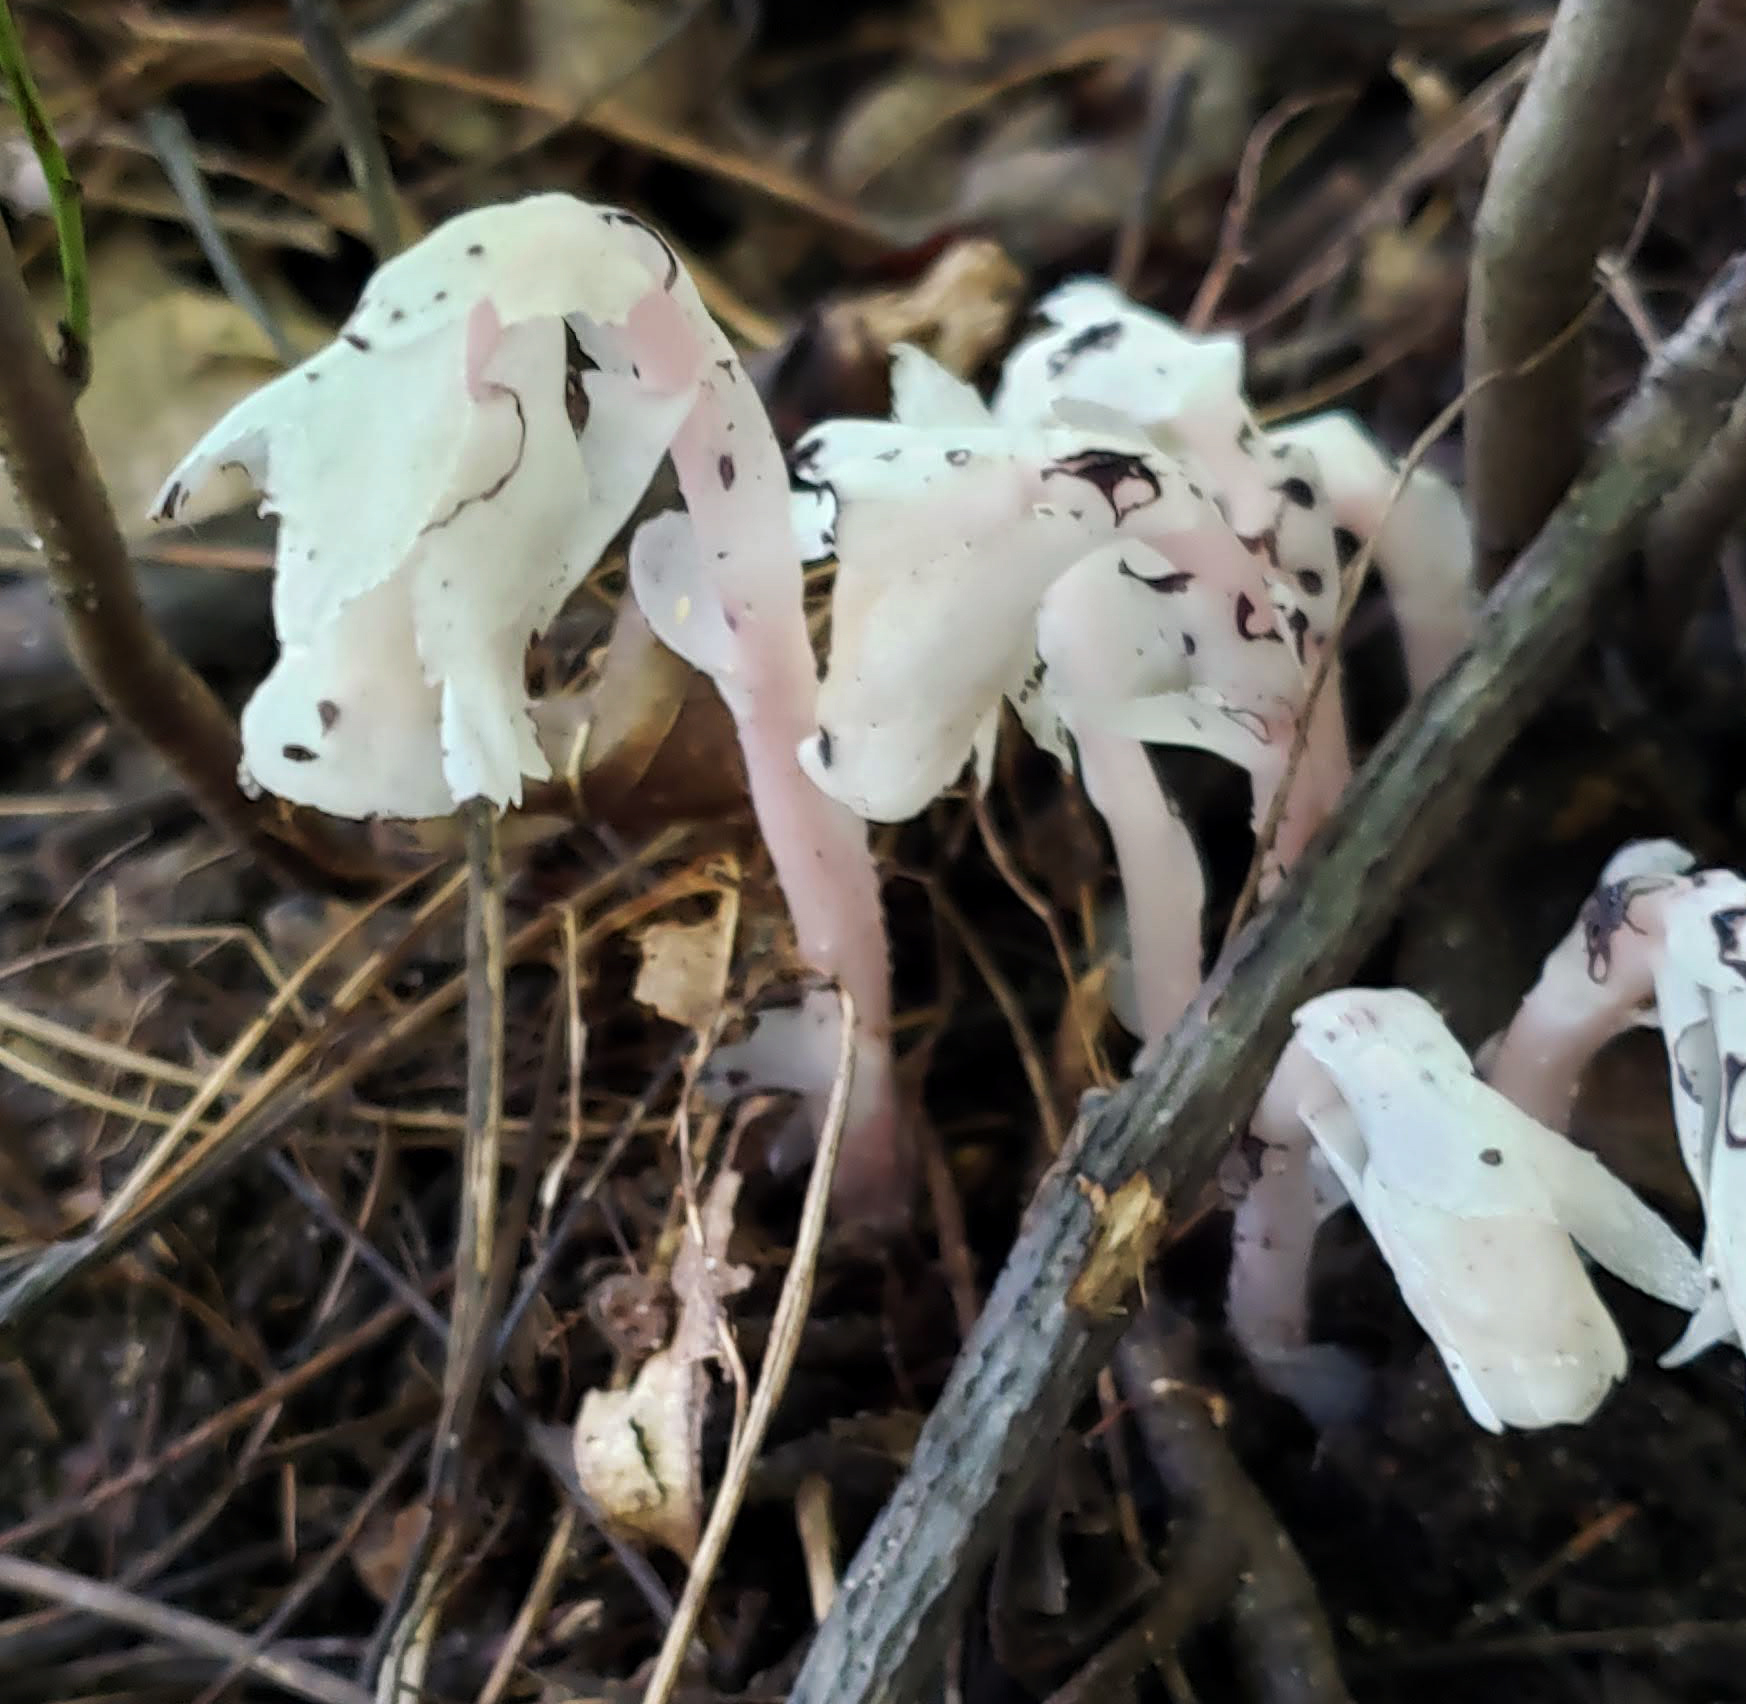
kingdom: Plantae
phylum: Tracheophyta
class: Magnoliopsida
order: Ericales
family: Ericaceae
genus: Monotropa
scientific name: Monotropa uniflora
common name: Convulsion root
